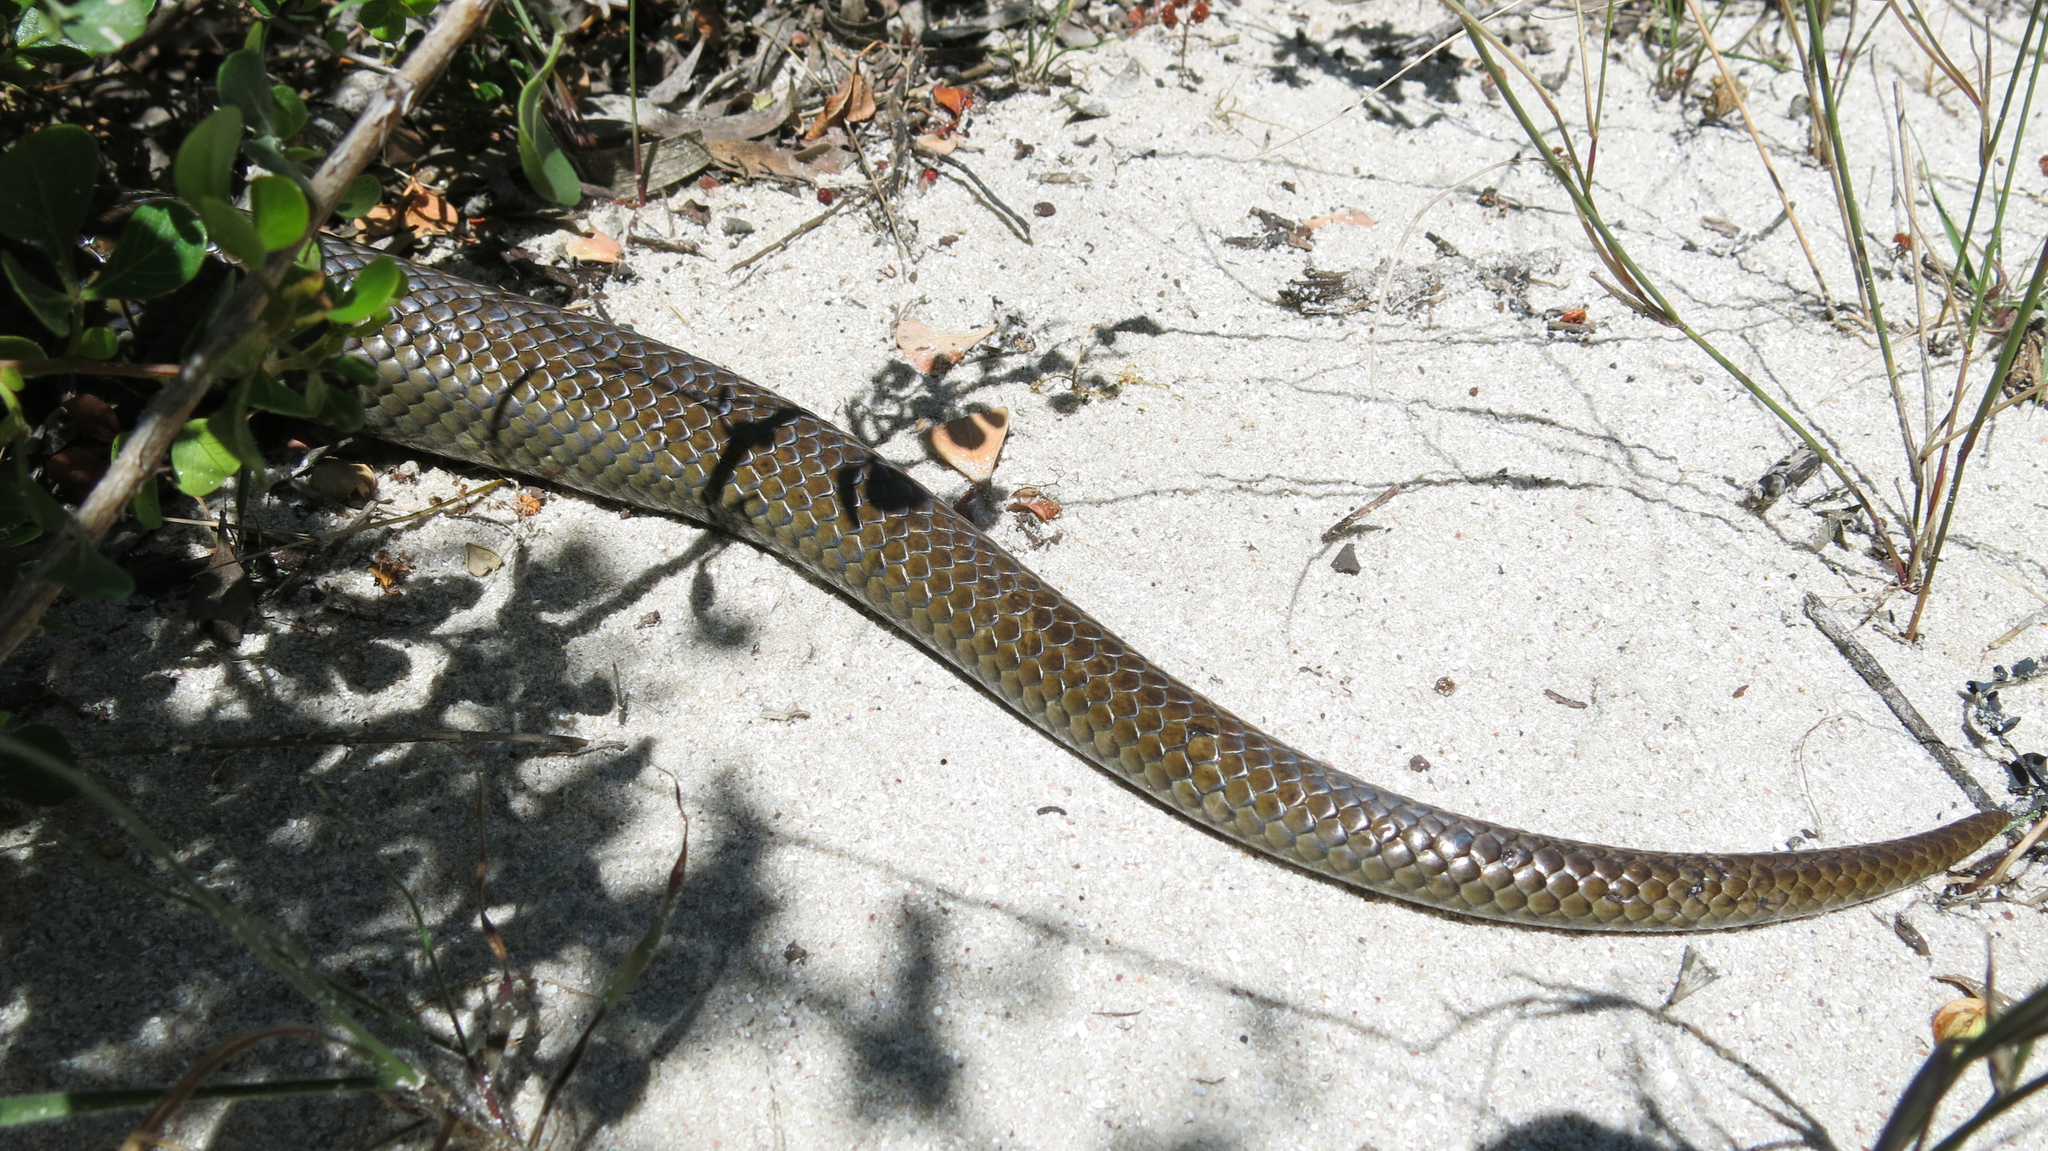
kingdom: Animalia
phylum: Chordata
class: Squamata
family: Pseudaspididae
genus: Pseudaspis
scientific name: Pseudaspis cana
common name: Mole snake
